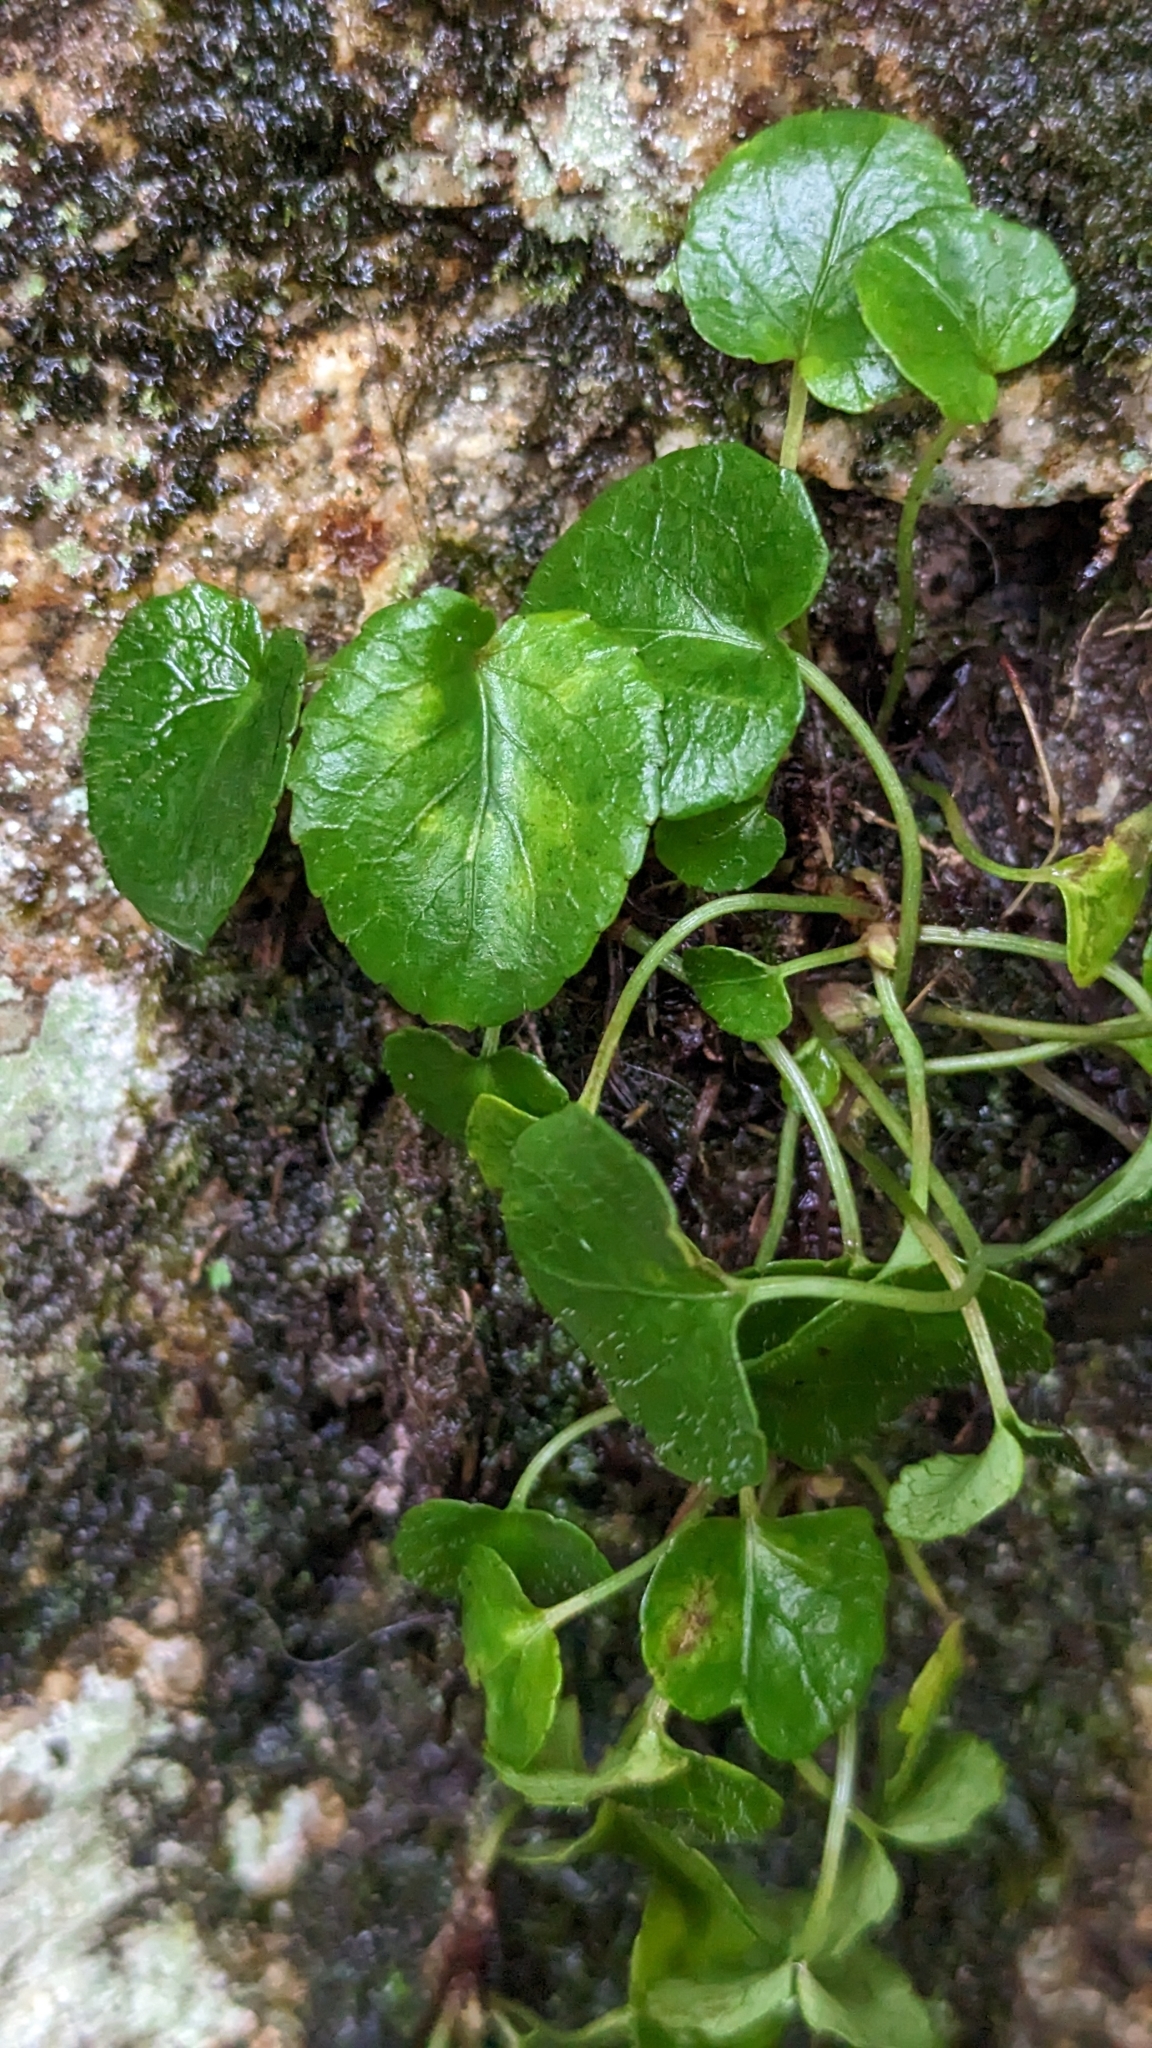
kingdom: Plantae
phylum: Tracheophyta
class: Magnoliopsida
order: Malpighiales
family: Violaceae
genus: Viola
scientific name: Viola sempervirens
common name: Evergreen violet
